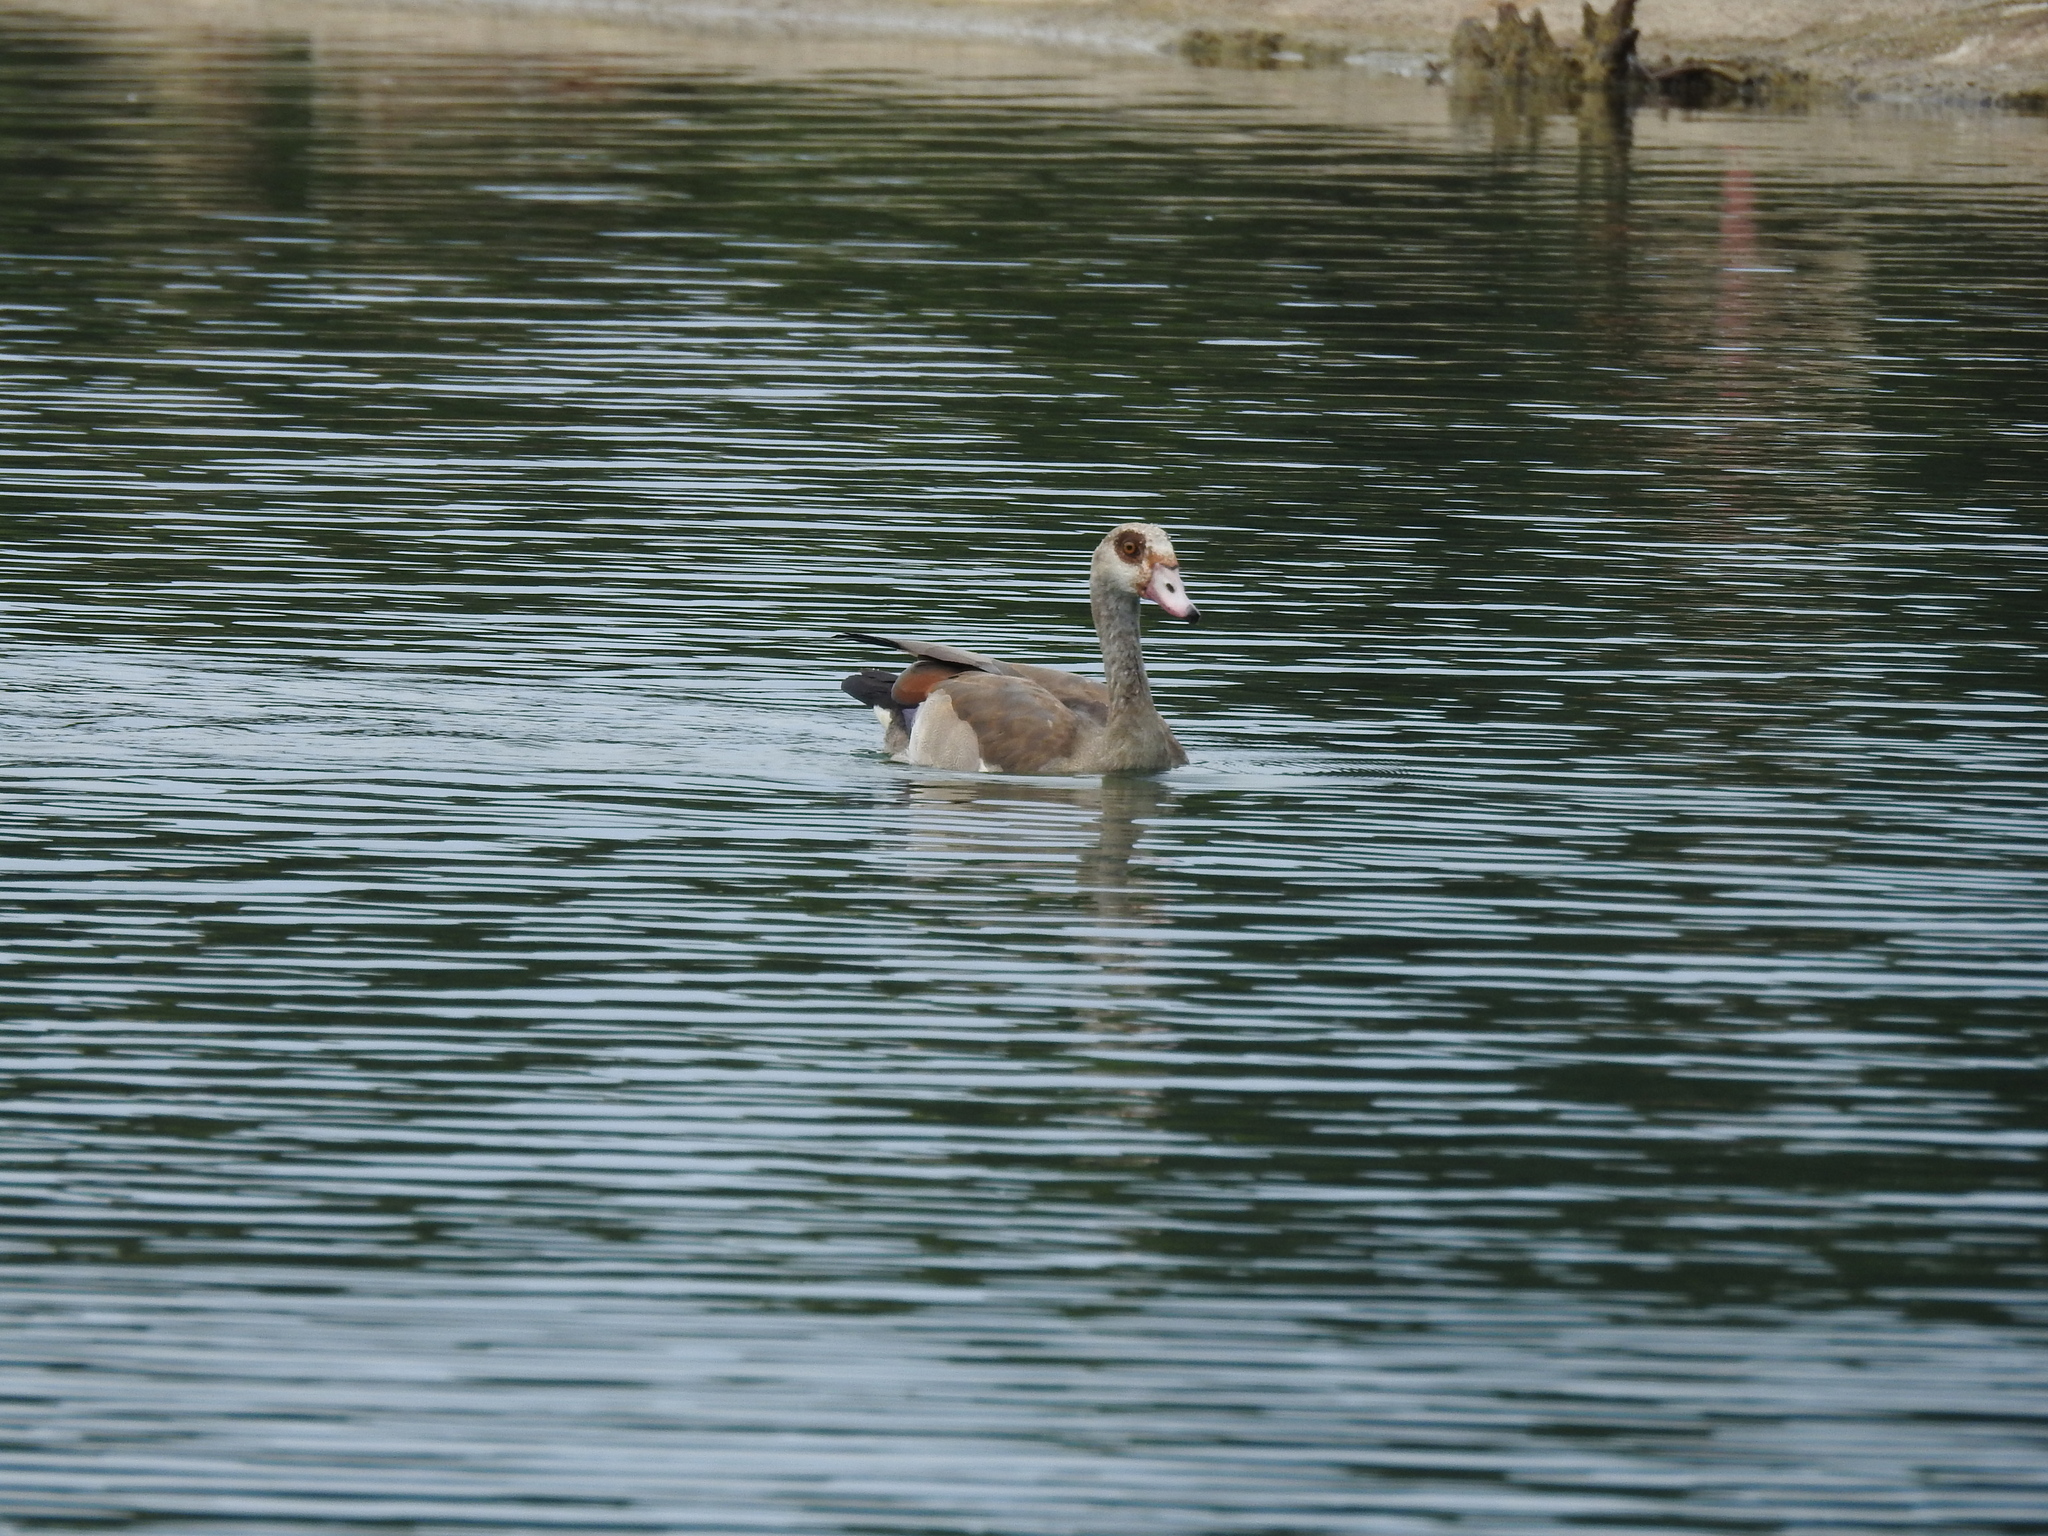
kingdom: Animalia
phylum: Chordata
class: Aves
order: Anseriformes
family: Anatidae
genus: Alopochen
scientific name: Alopochen aegyptiaca
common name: Egyptian goose
